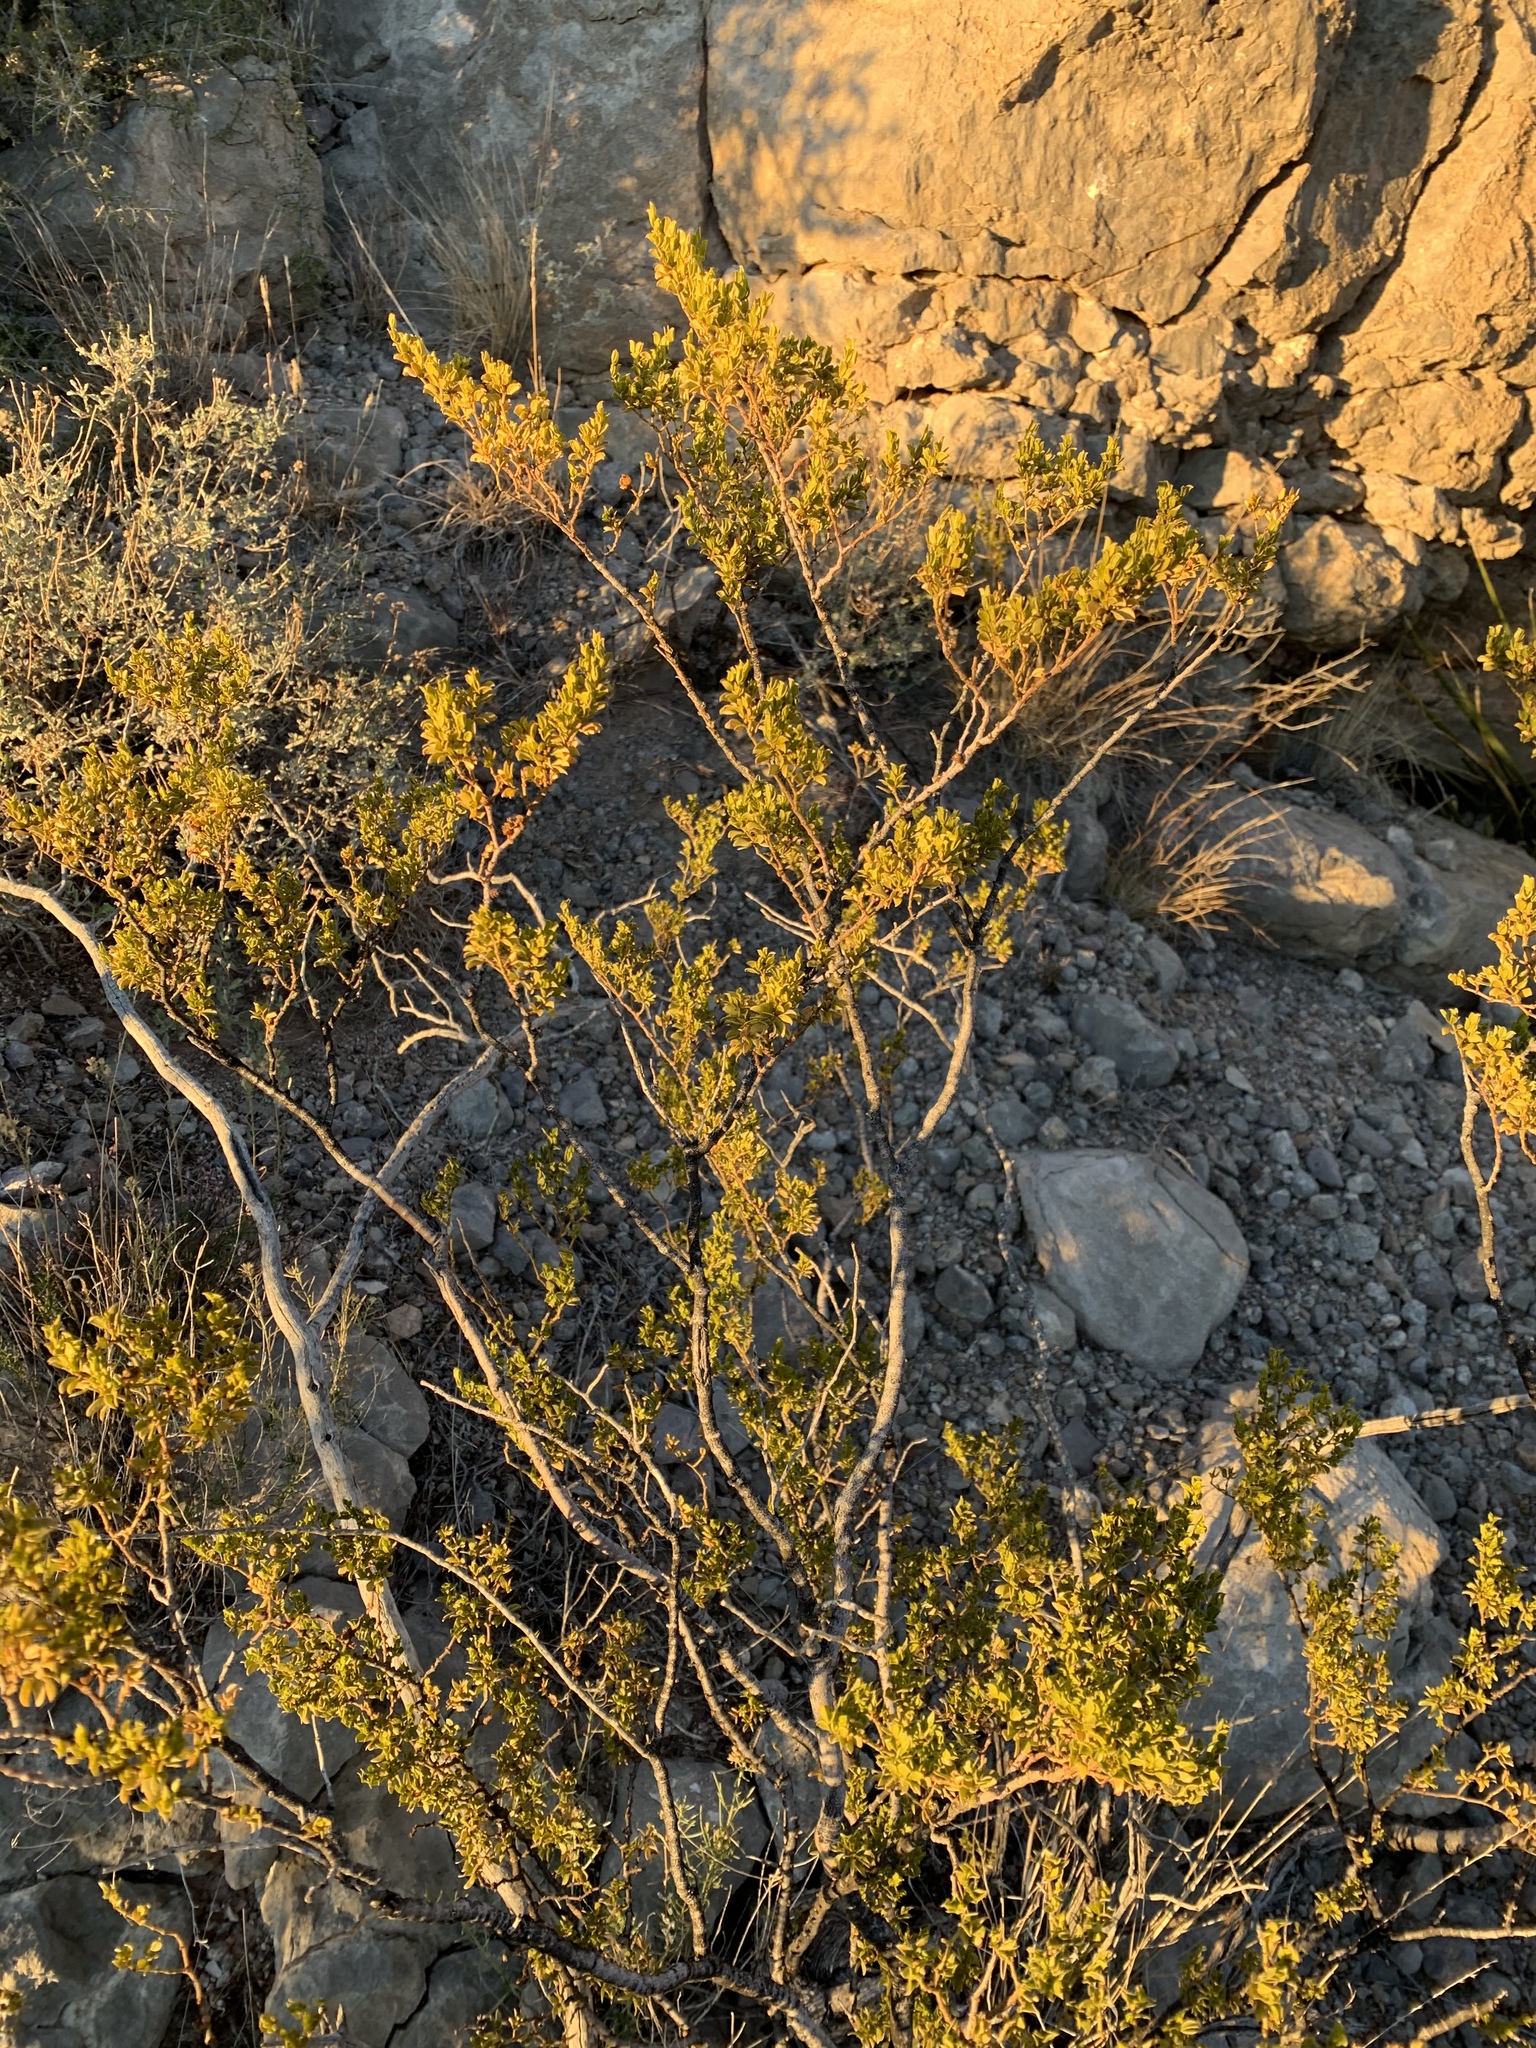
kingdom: Plantae
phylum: Tracheophyta
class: Magnoliopsida
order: Zygophyllales
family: Zygophyllaceae
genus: Larrea
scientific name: Larrea tridentata
